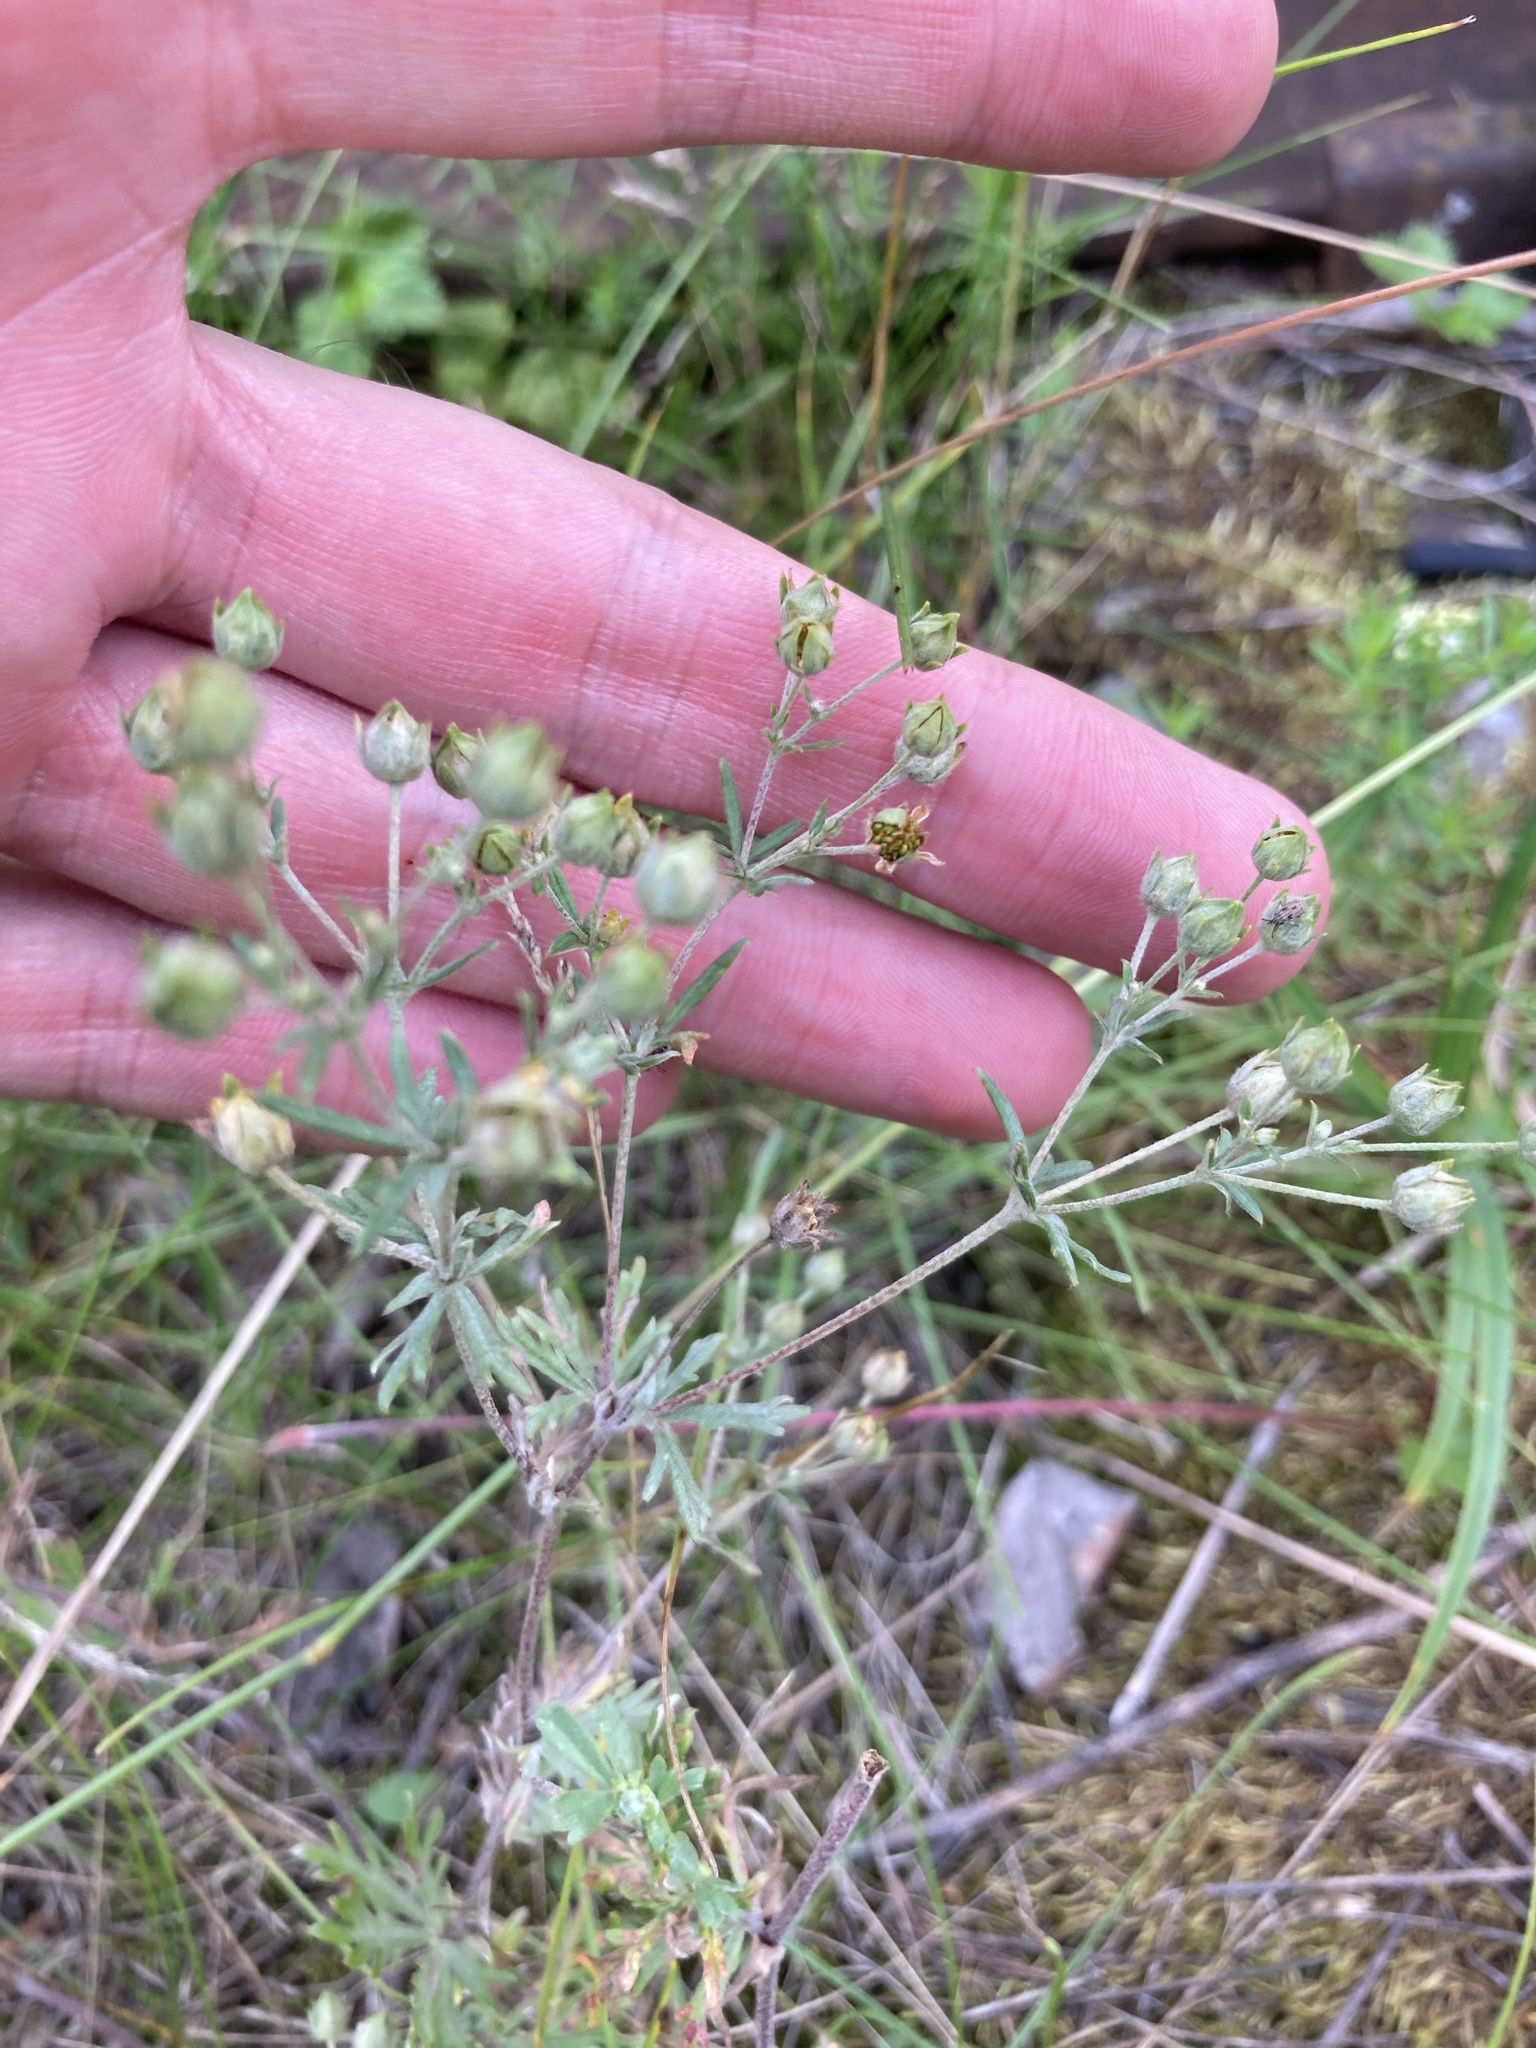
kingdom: Plantae
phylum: Tracheophyta
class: Magnoliopsida
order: Rosales
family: Rosaceae
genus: Potentilla
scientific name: Potentilla argentea
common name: Hoary cinquefoil
